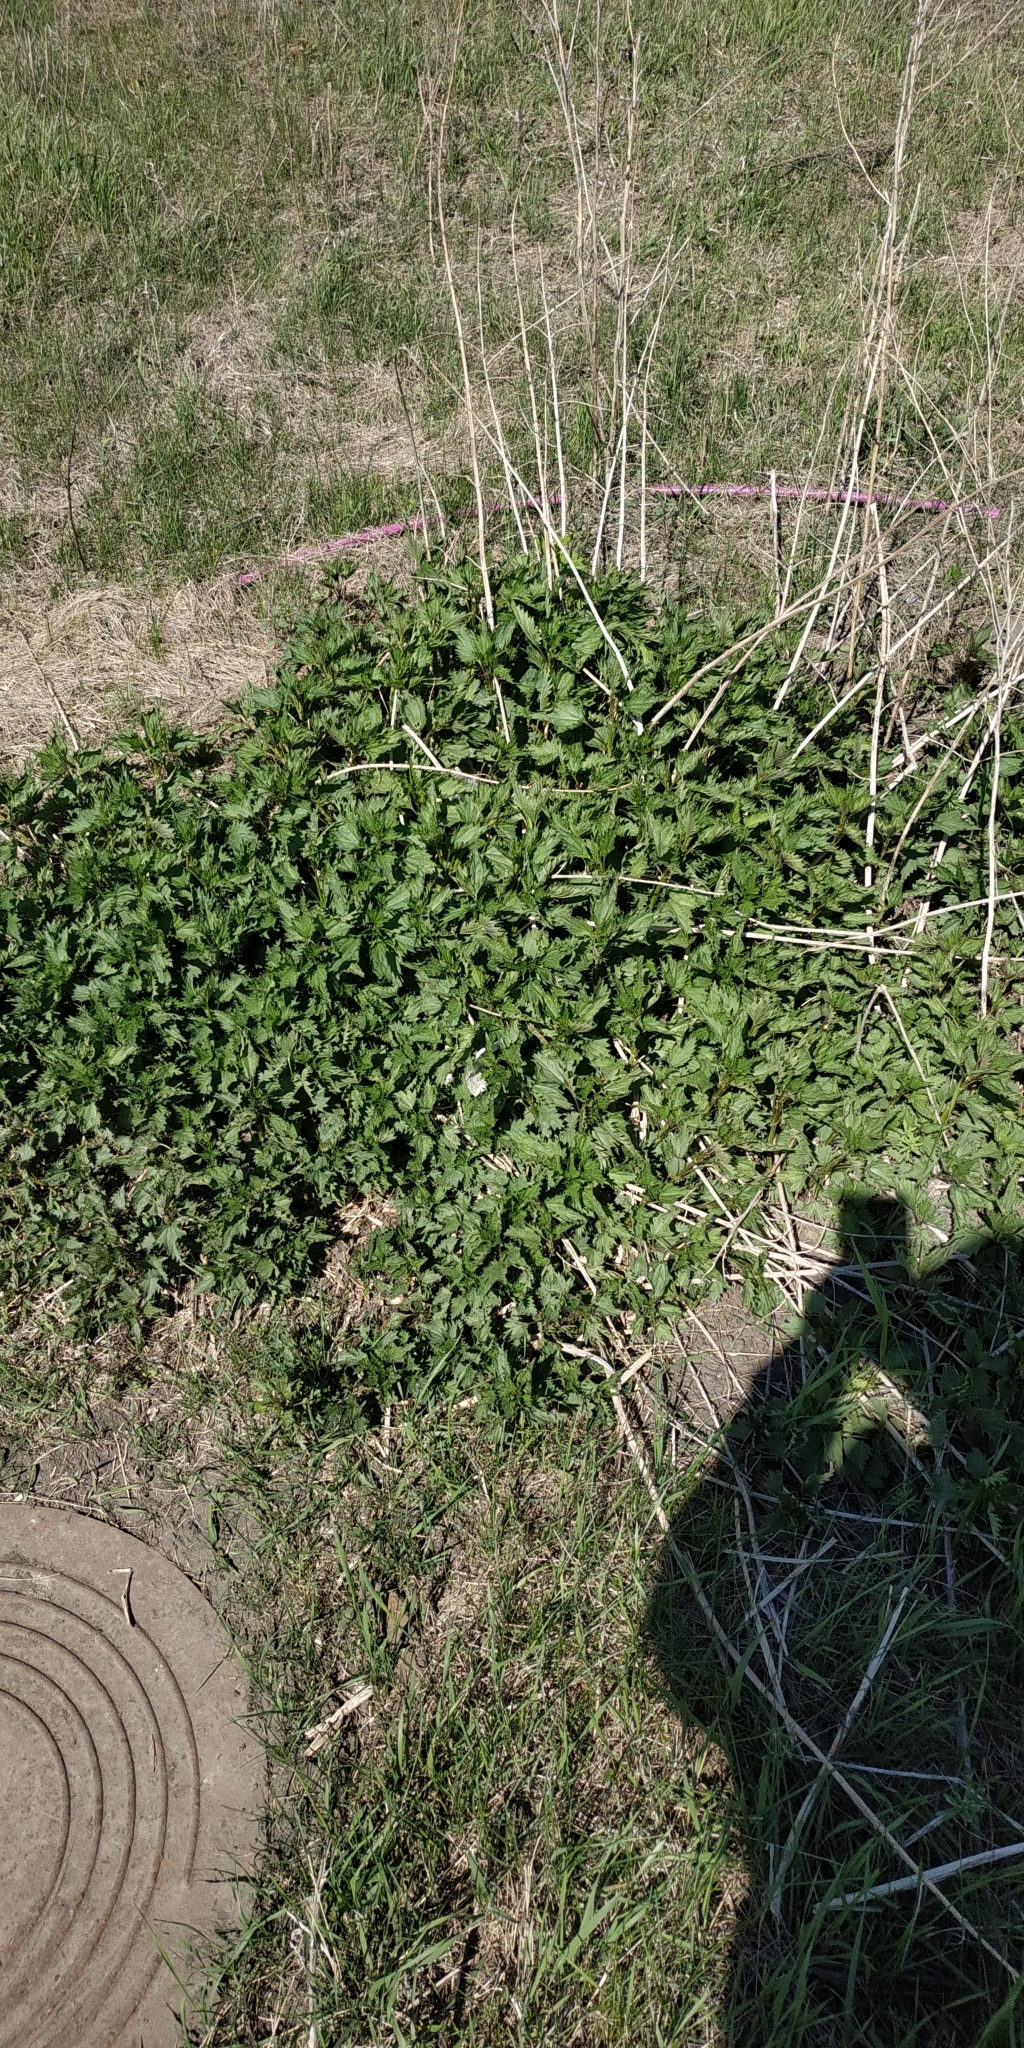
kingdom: Plantae
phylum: Tracheophyta
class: Magnoliopsida
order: Rosales
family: Urticaceae
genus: Urtica
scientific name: Urtica dioica
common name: Common nettle
